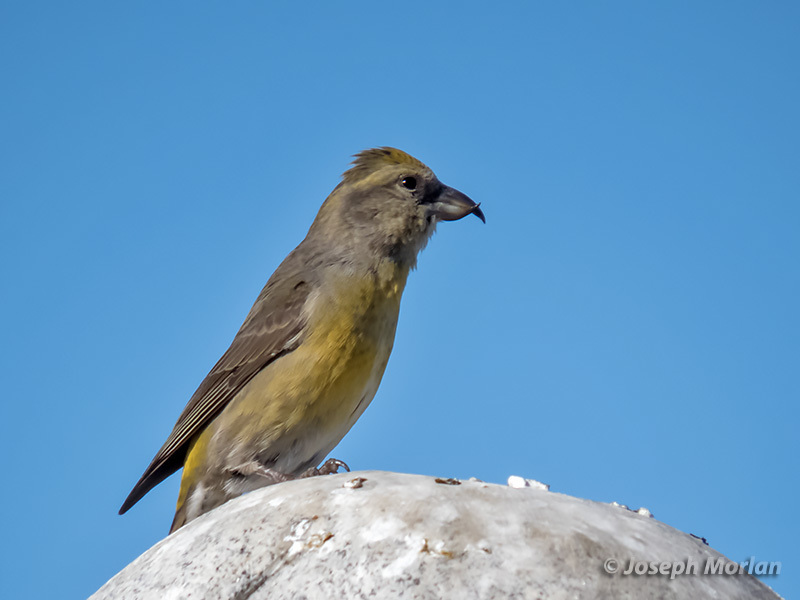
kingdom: Animalia
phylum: Chordata
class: Aves
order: Passeriformes
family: Fringillidae
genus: Loxia
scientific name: Loxia curvirostra
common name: Red crossbill
